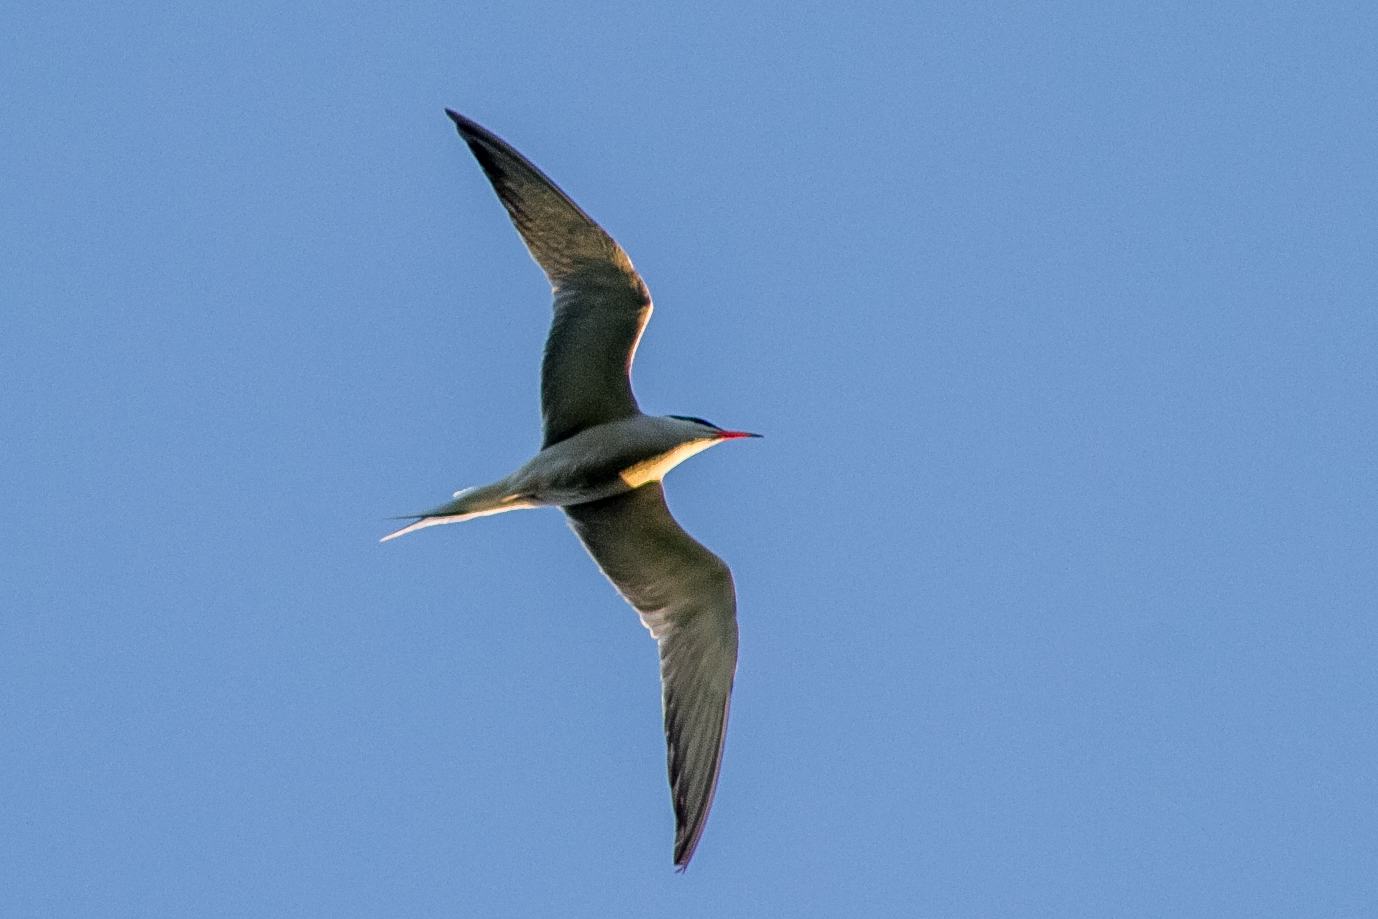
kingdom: Animalia
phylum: Chordata
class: Aves
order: Charadriiformes
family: Laridae
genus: Sterna
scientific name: Sterna hirundo
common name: Common tern
